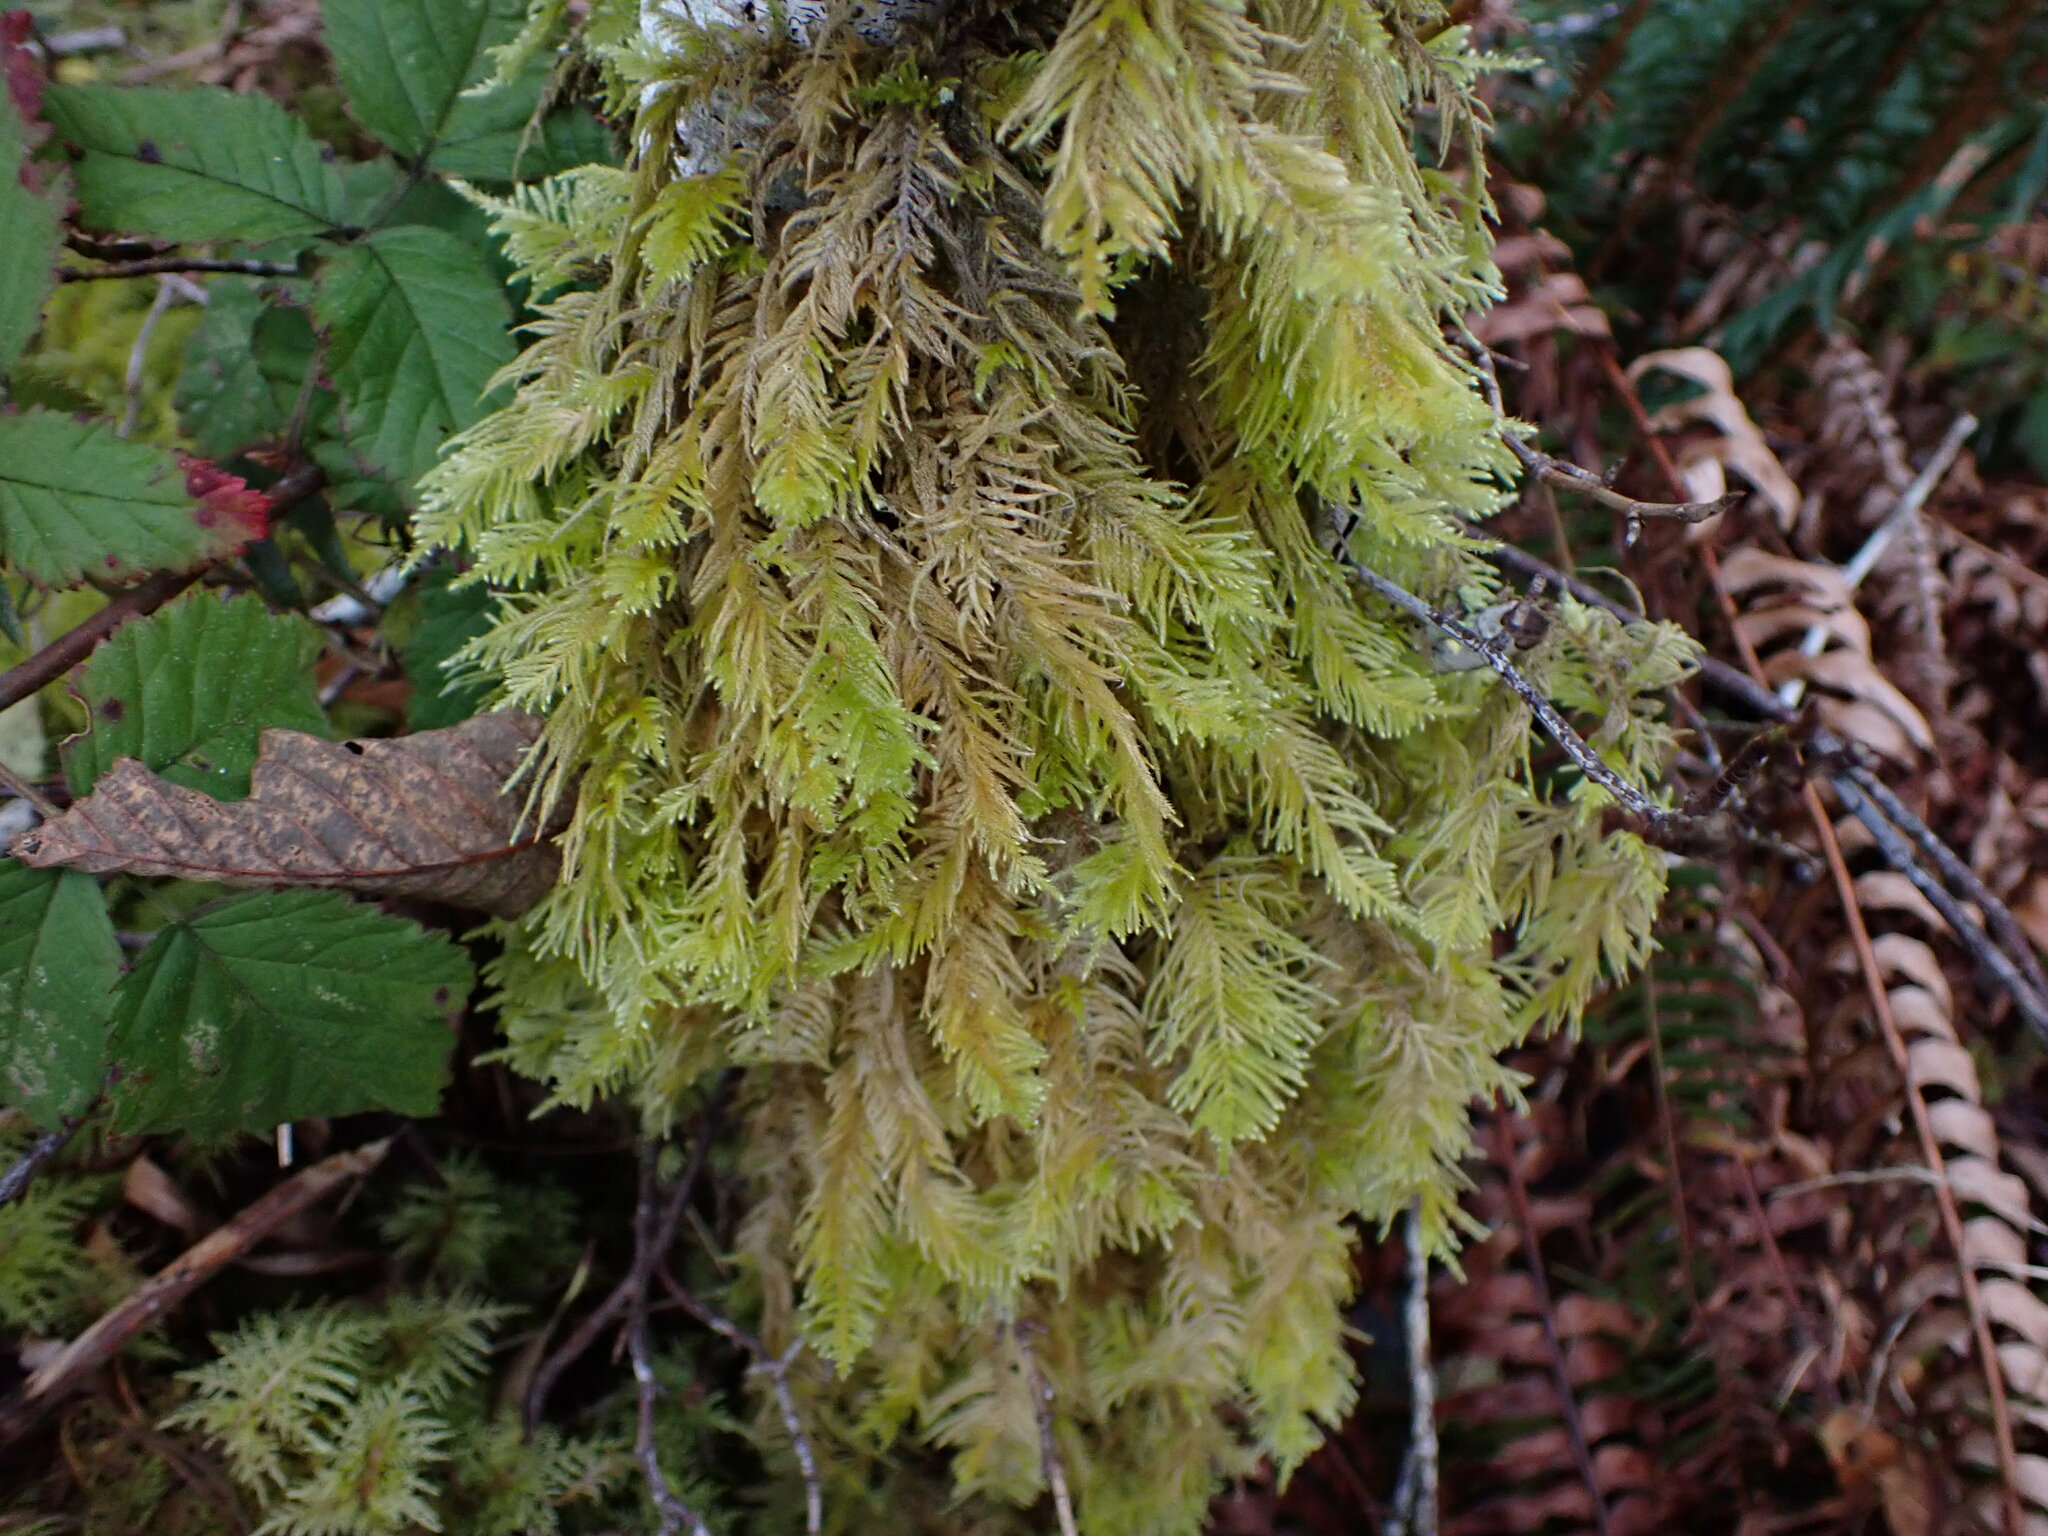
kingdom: Plantae
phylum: Bryophyta
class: Bryopsida
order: Hypnales
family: Brachytheciaceae
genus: Kindbergia
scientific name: Kindbergia oregana
